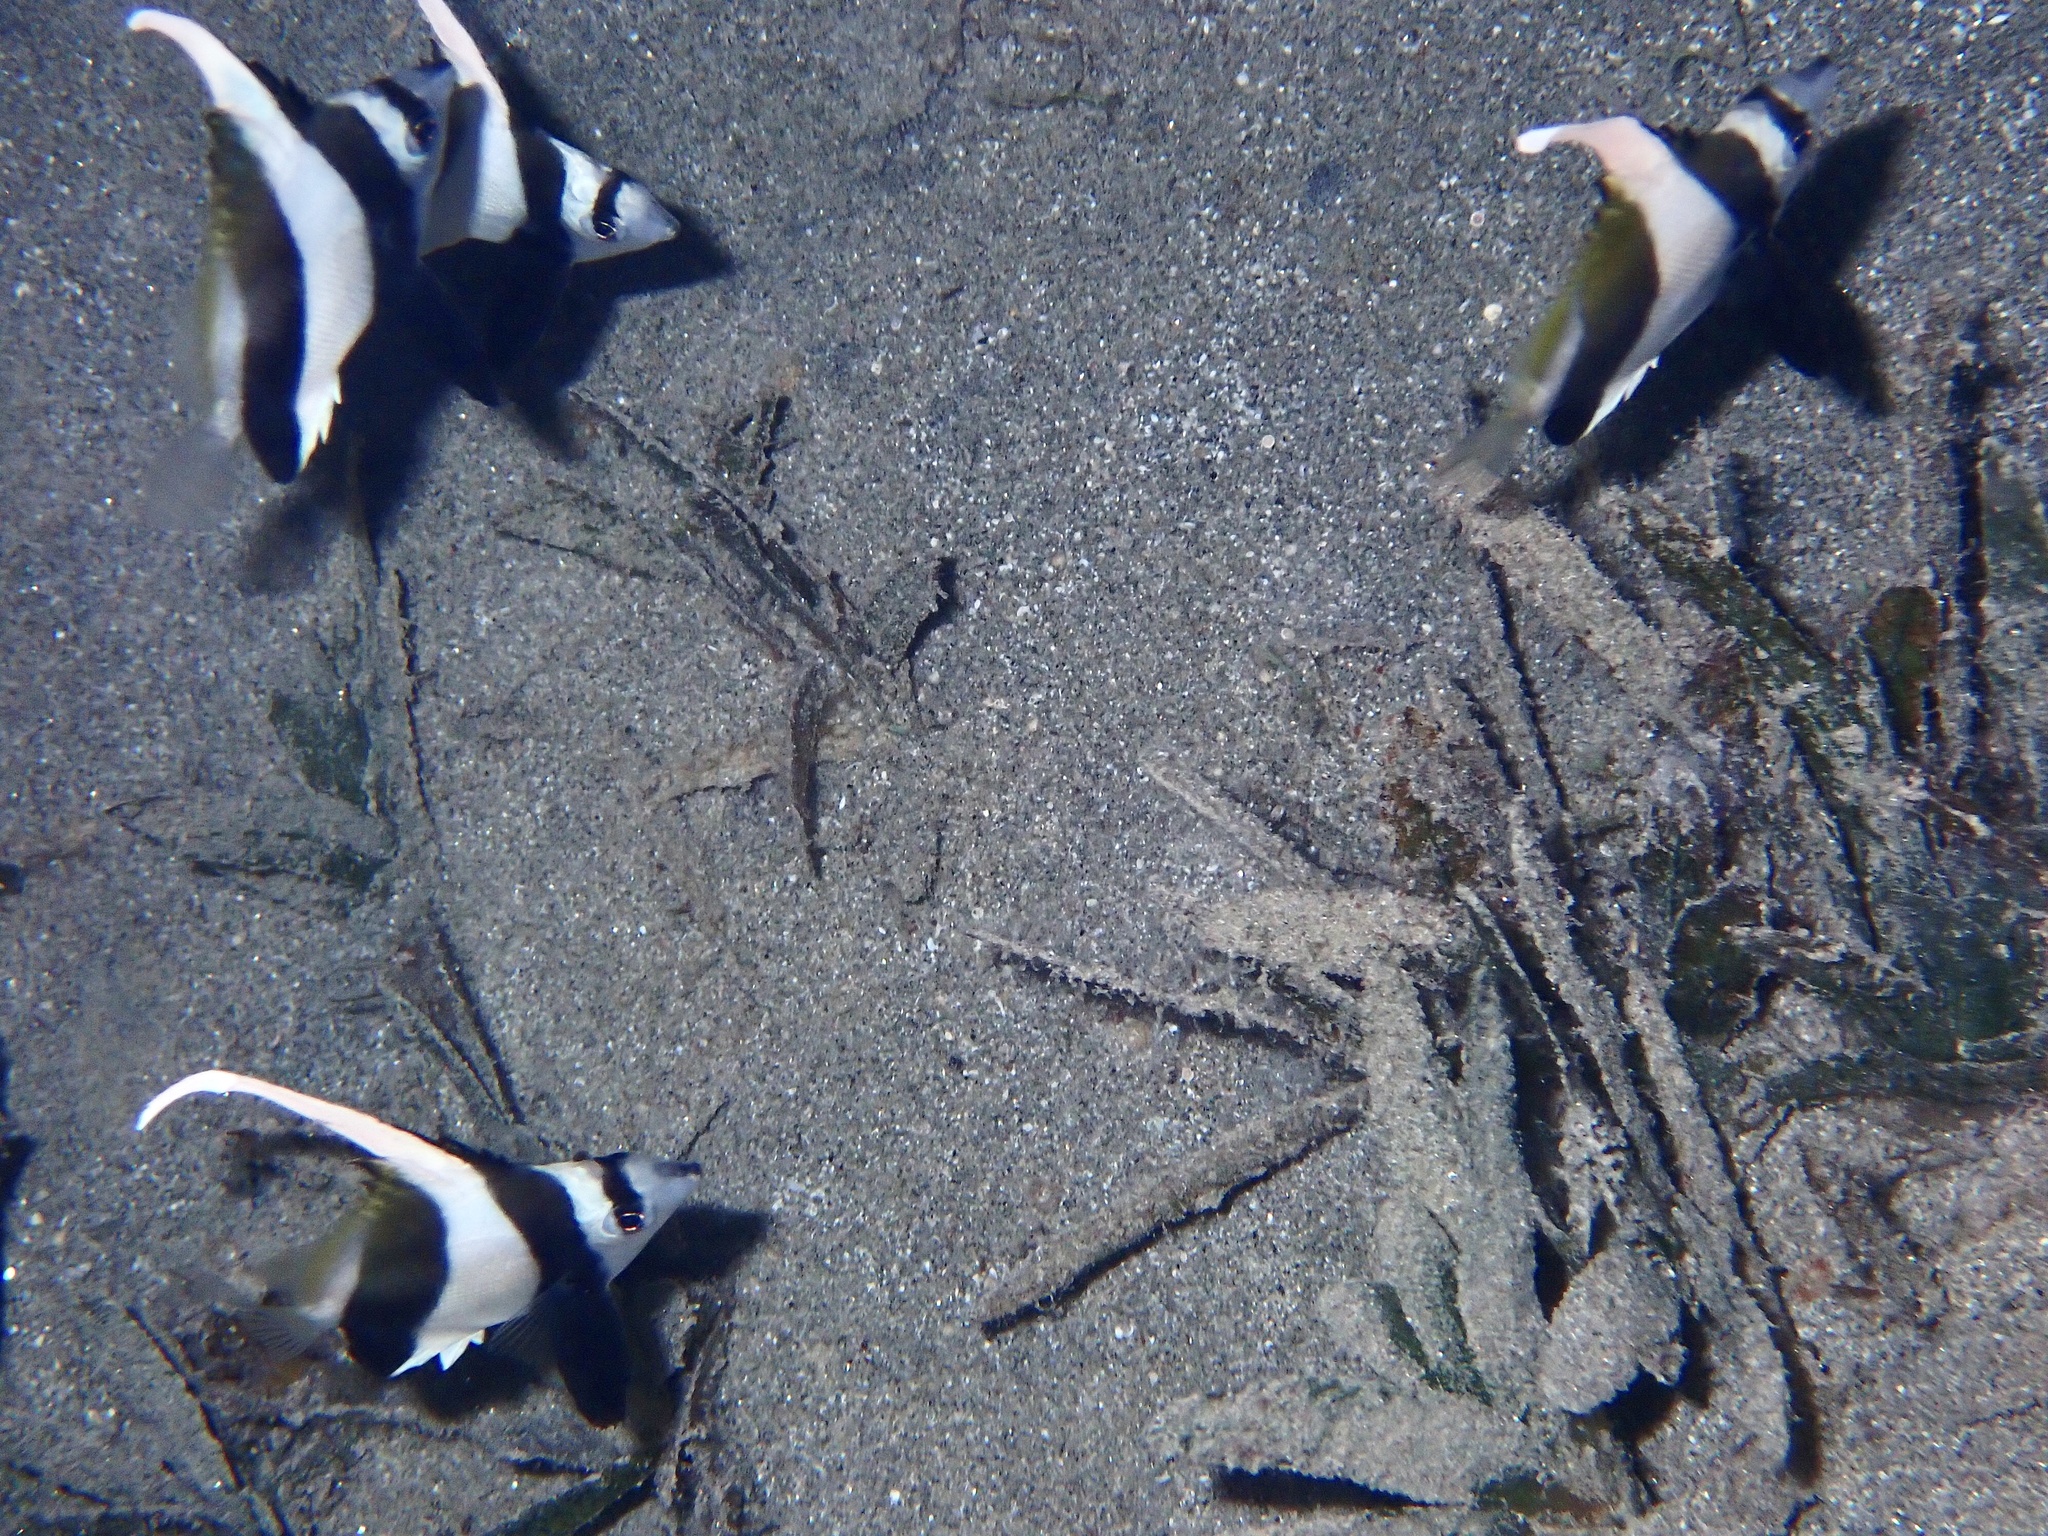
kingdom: Animalia
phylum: Chordata
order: Perciformes
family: Chaetodontidae
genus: Heniochus
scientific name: Heniochus diphreutes
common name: Pennantfish
